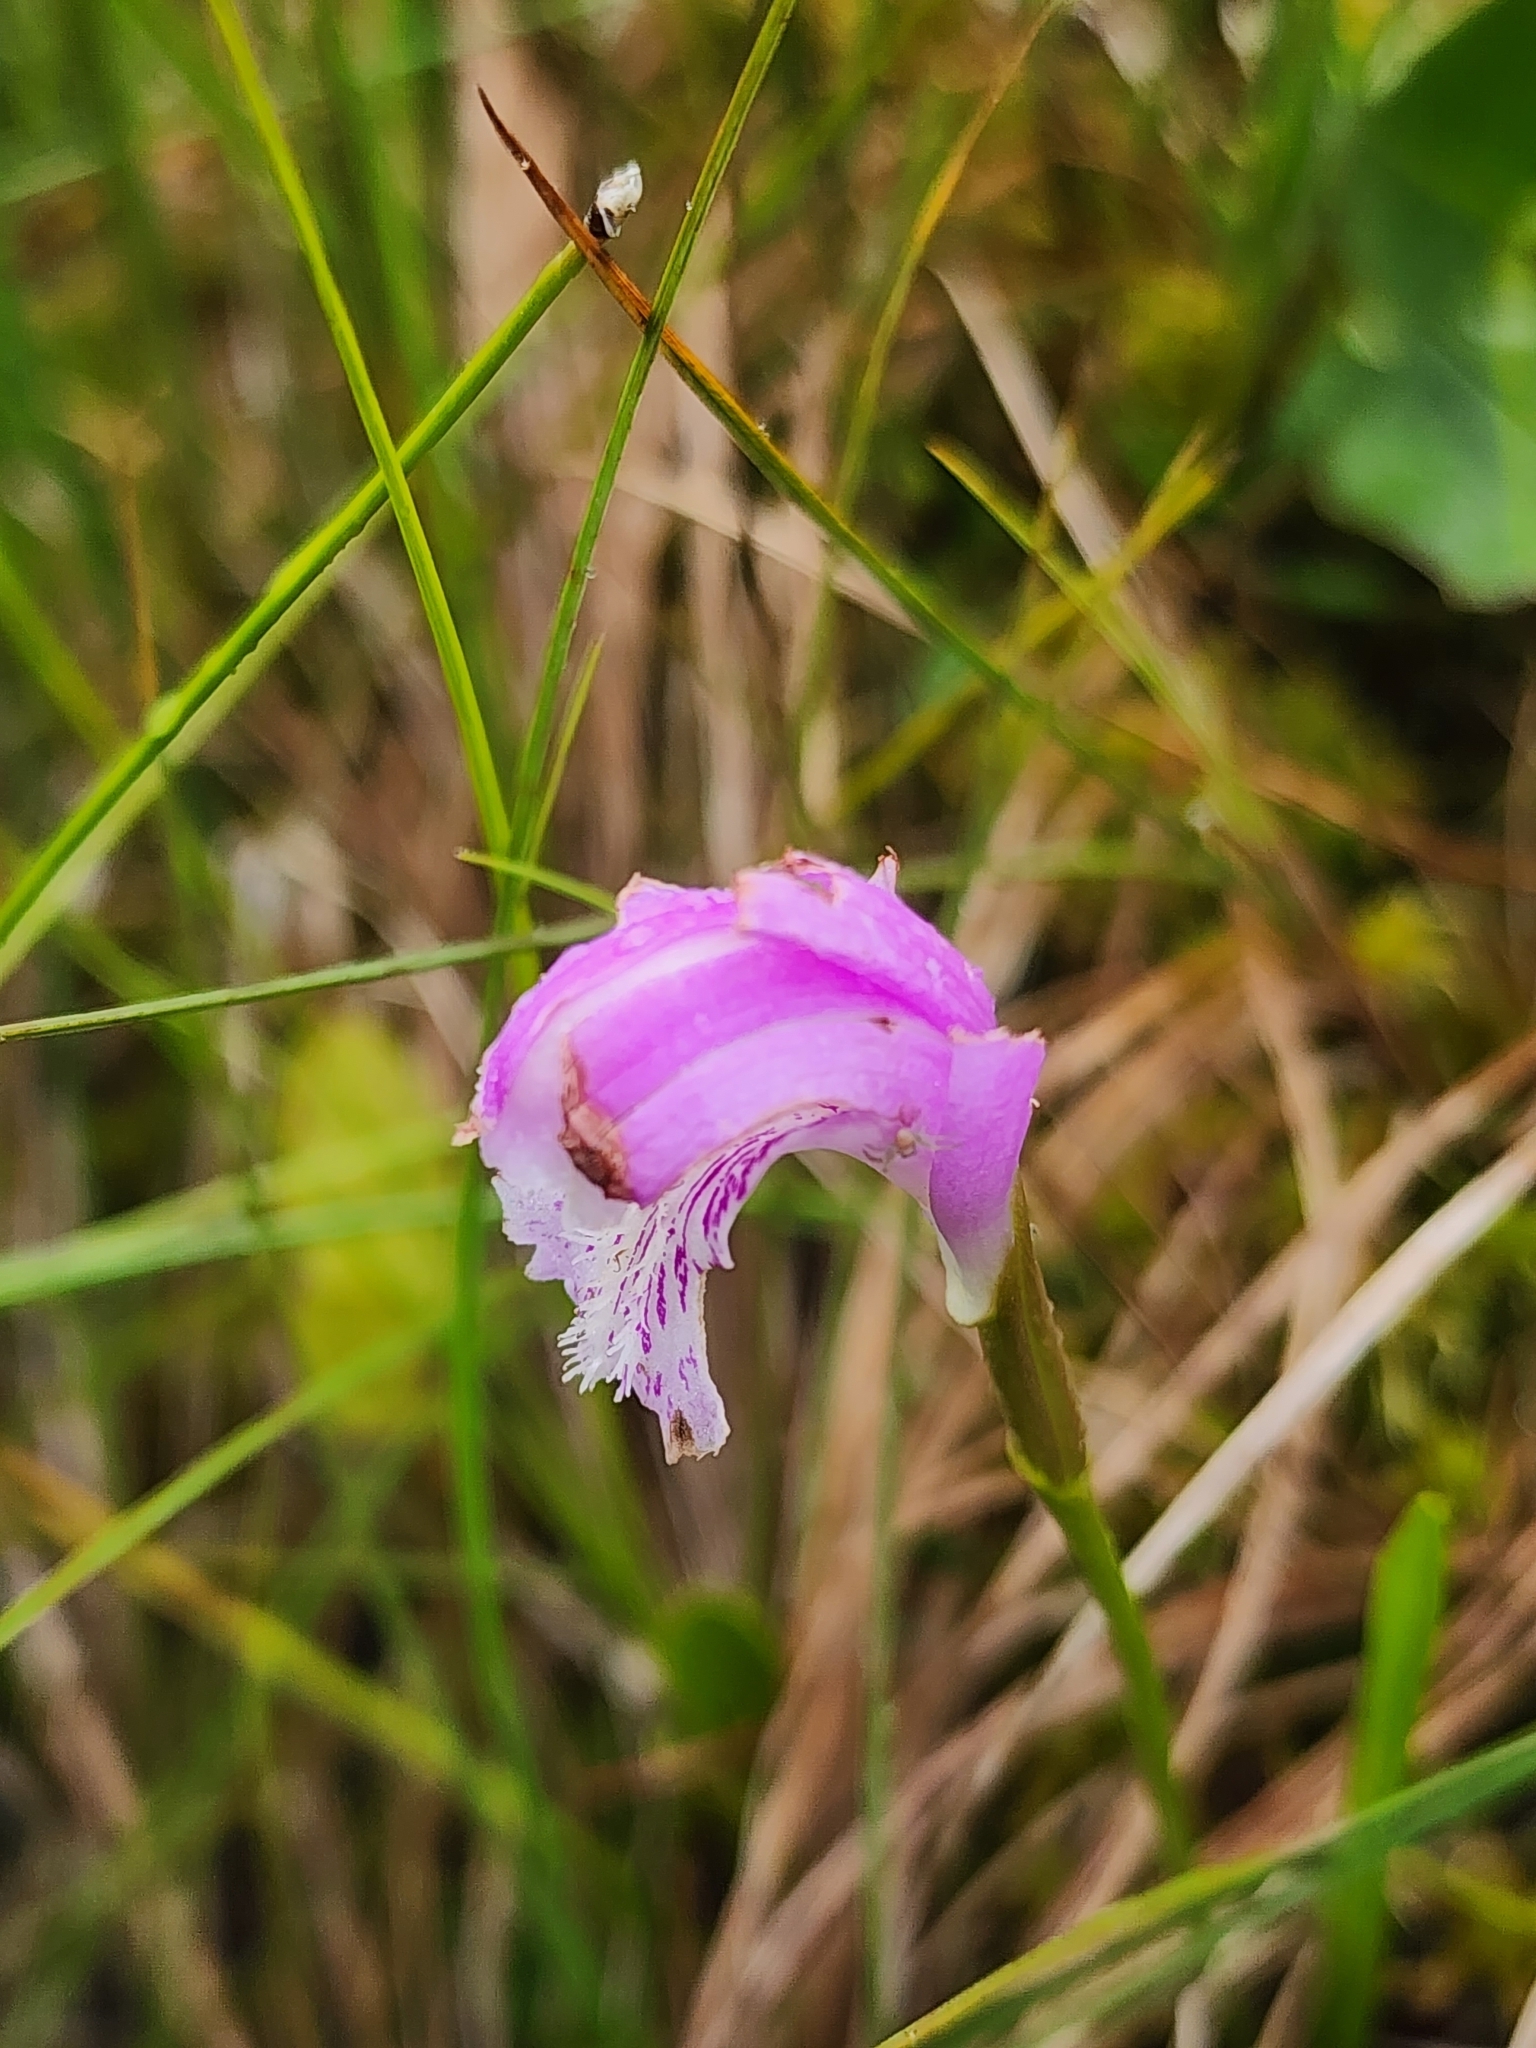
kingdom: Plantae
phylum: Tracheophyta
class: Liliopsida
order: Asparagales
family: Orchidaceae
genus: Arethusa
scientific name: Arethusa bulbosa
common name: Arethusa
